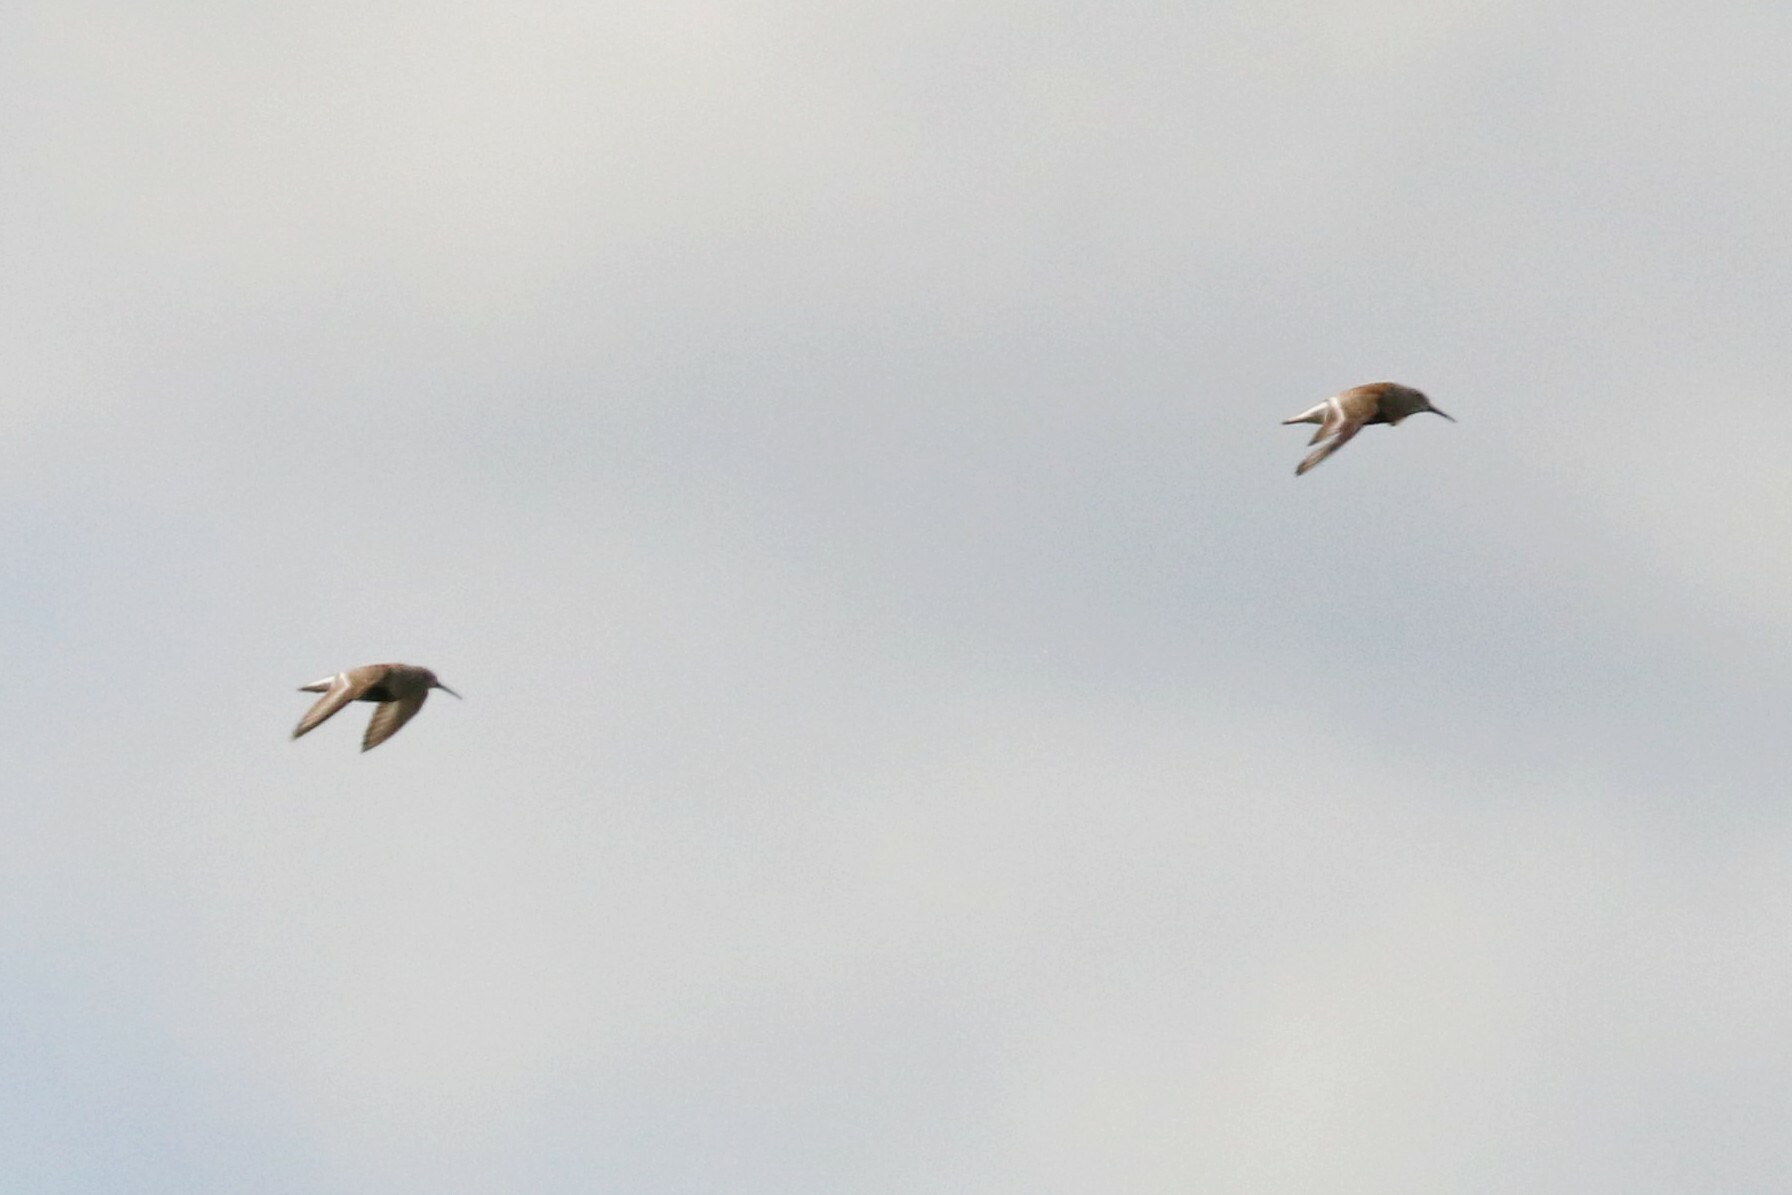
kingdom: Animalia
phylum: Chordata
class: Aves
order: Charadriiformes
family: Scolopacidae
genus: Calidris
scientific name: Calidris alpina
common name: Dunlin
